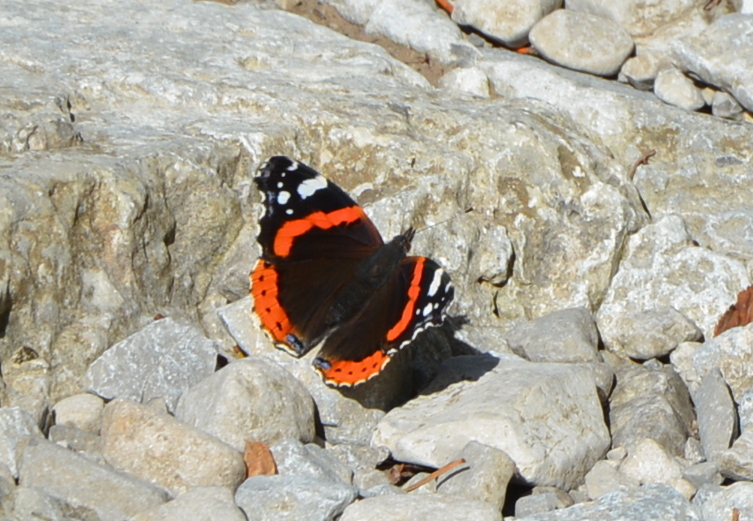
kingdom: Animalia
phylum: Arthropoda
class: Insecta
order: Lepidoptera
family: Nymphalidae
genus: Vanessa
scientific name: Vanessa atalanta
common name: Red admiral
